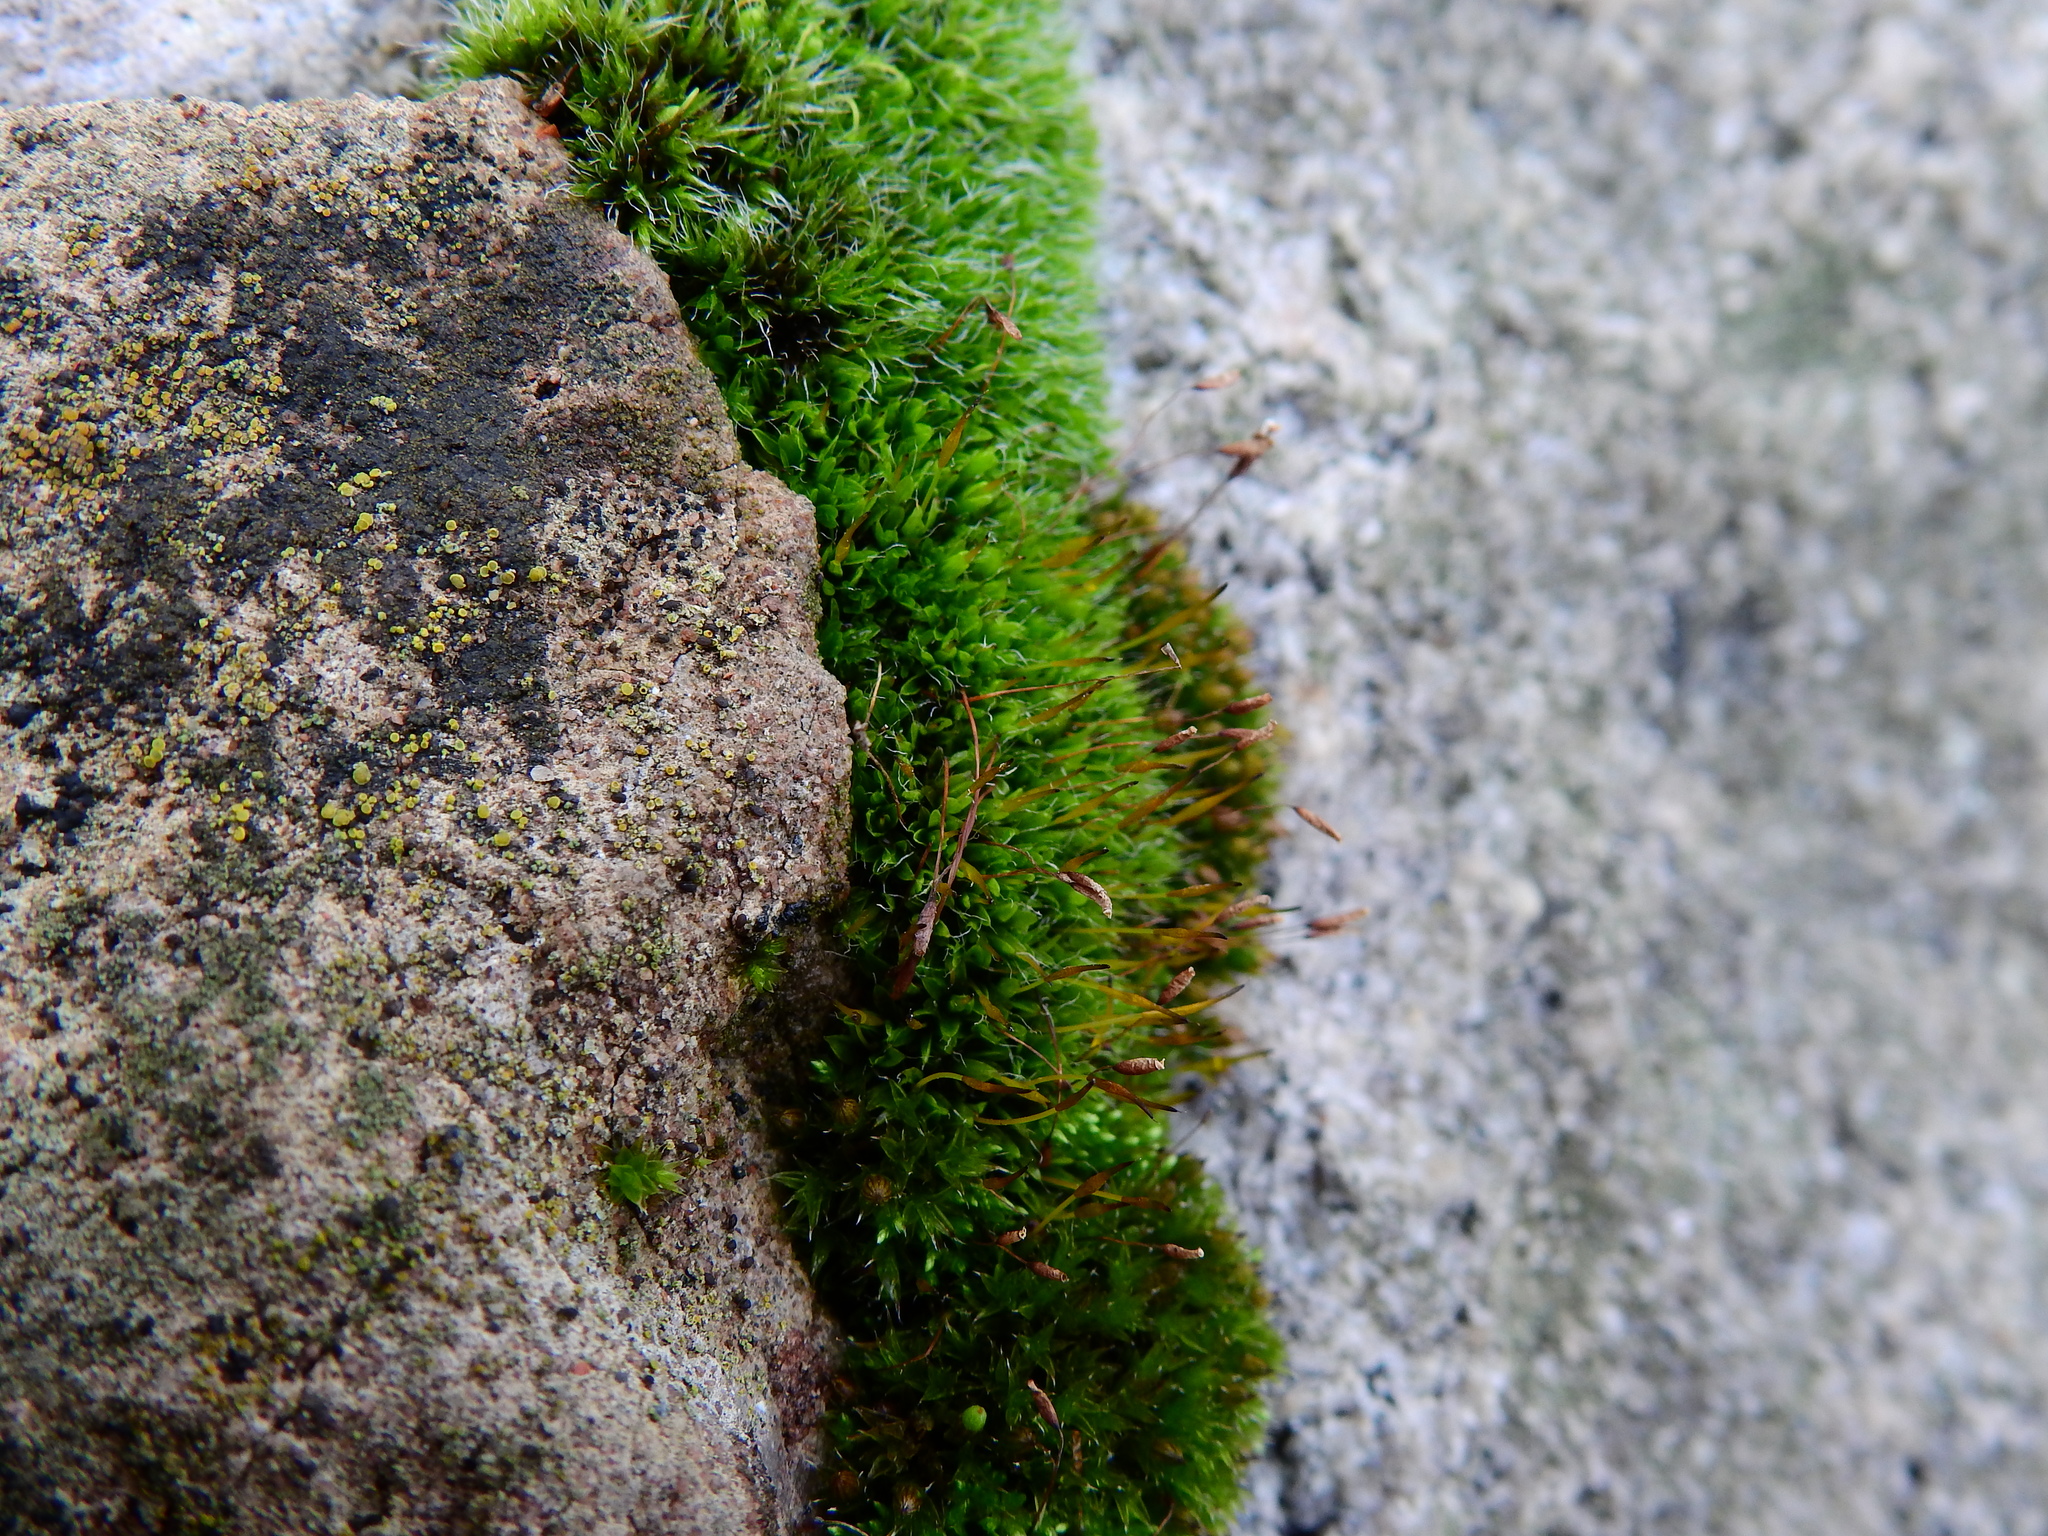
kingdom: Plantae
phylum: Bryophyta
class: Bryopsida
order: Pottiales
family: Pottiaceae
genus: Tortula
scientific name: Tortula muralis
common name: Wall screw-moss
